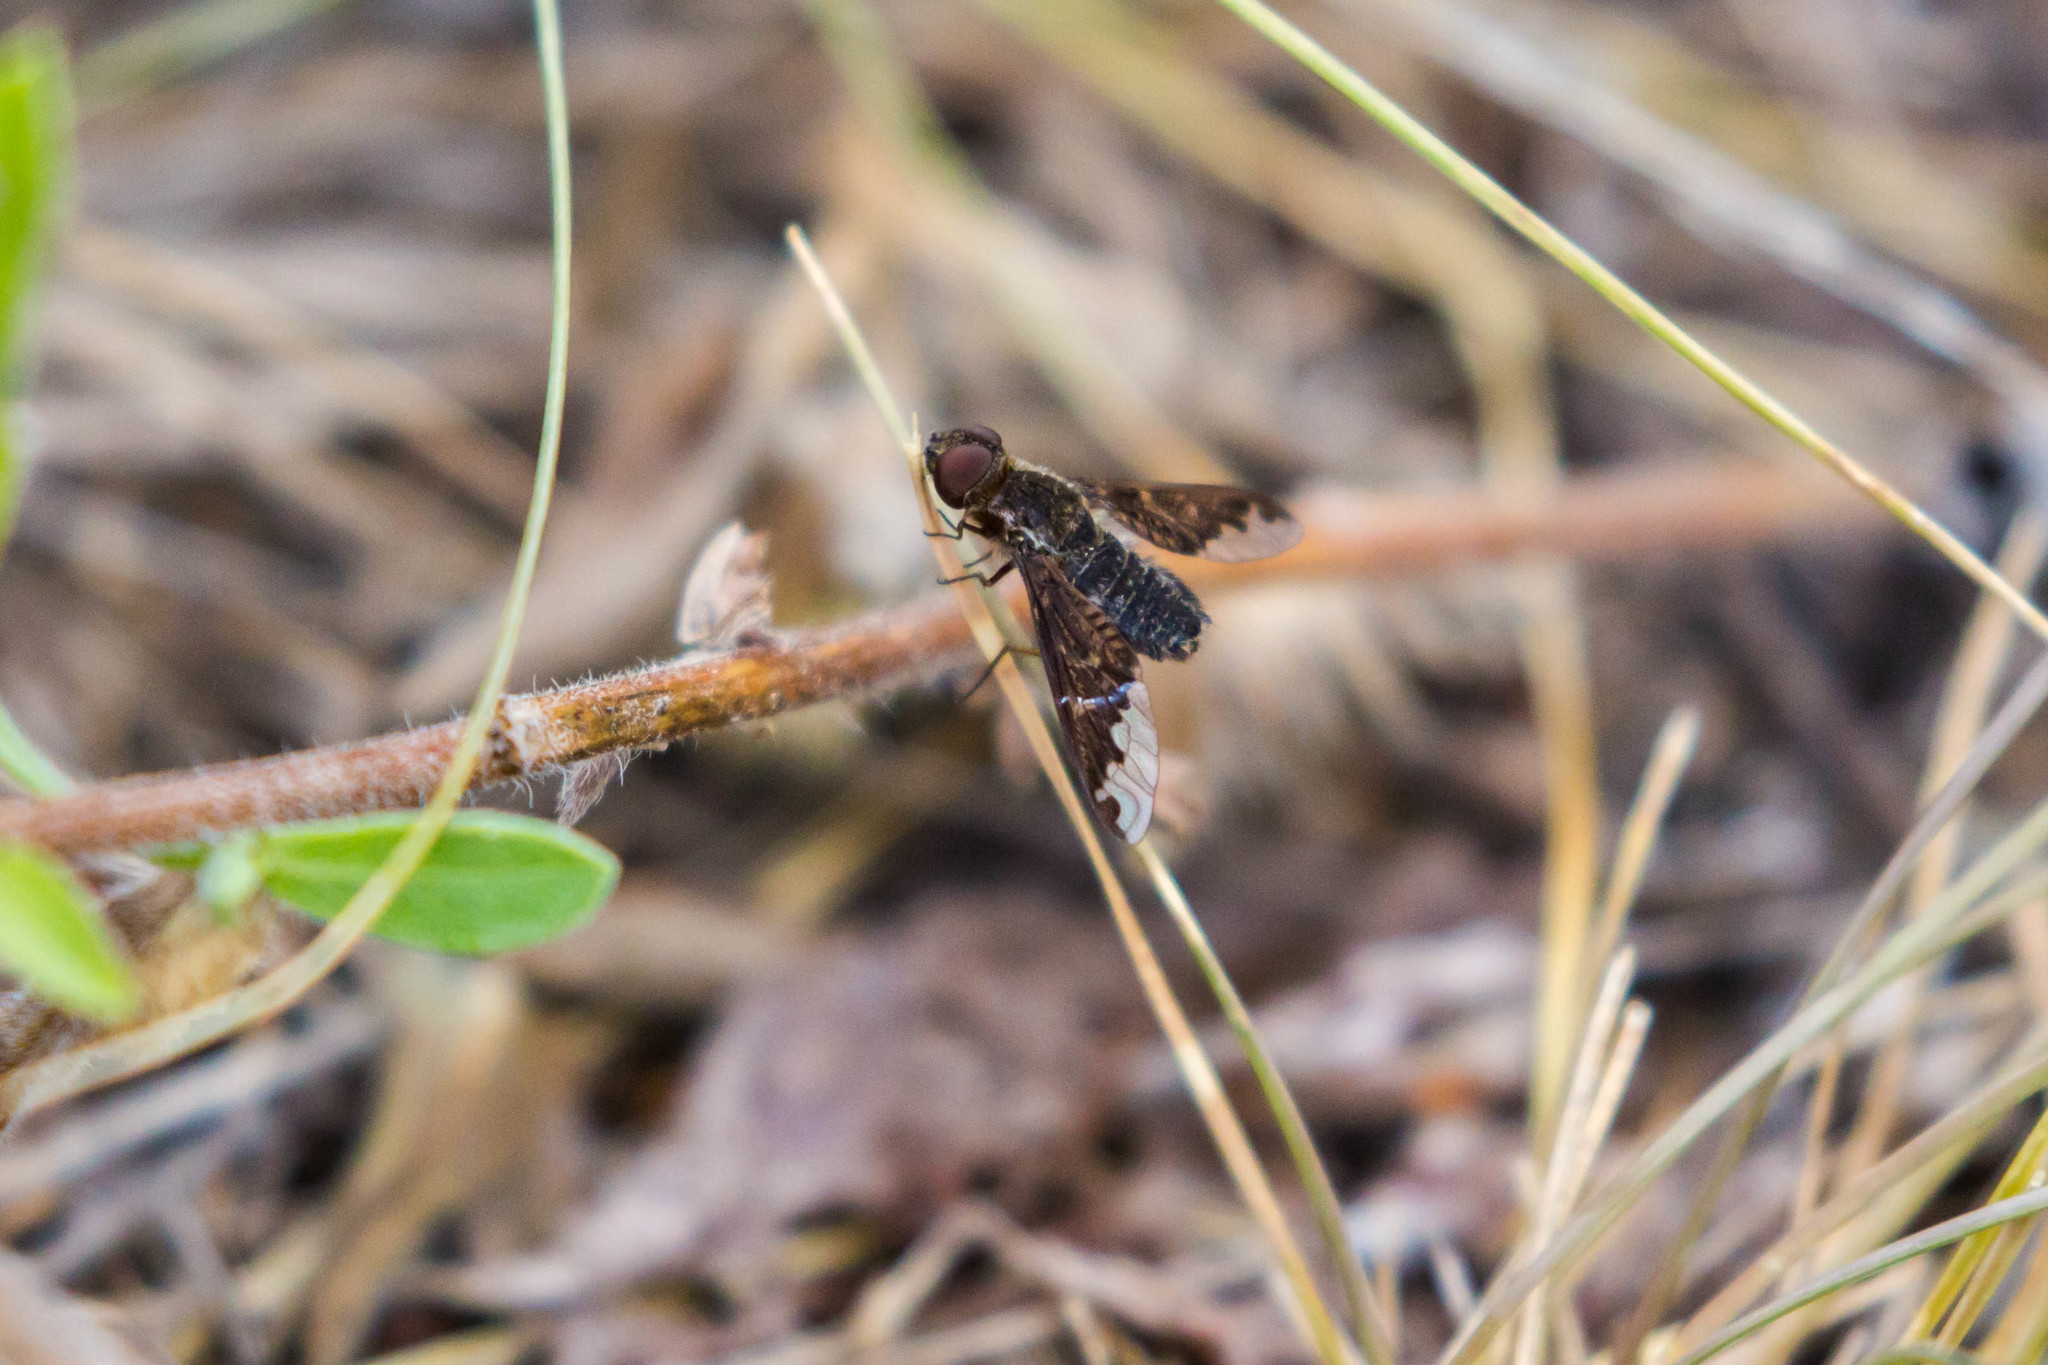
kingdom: Animalia
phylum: Arthropoda
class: Insecta
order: Diptera
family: Bombyliidae
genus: Hemipenthes
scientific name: Hemipenthes sinuosus
